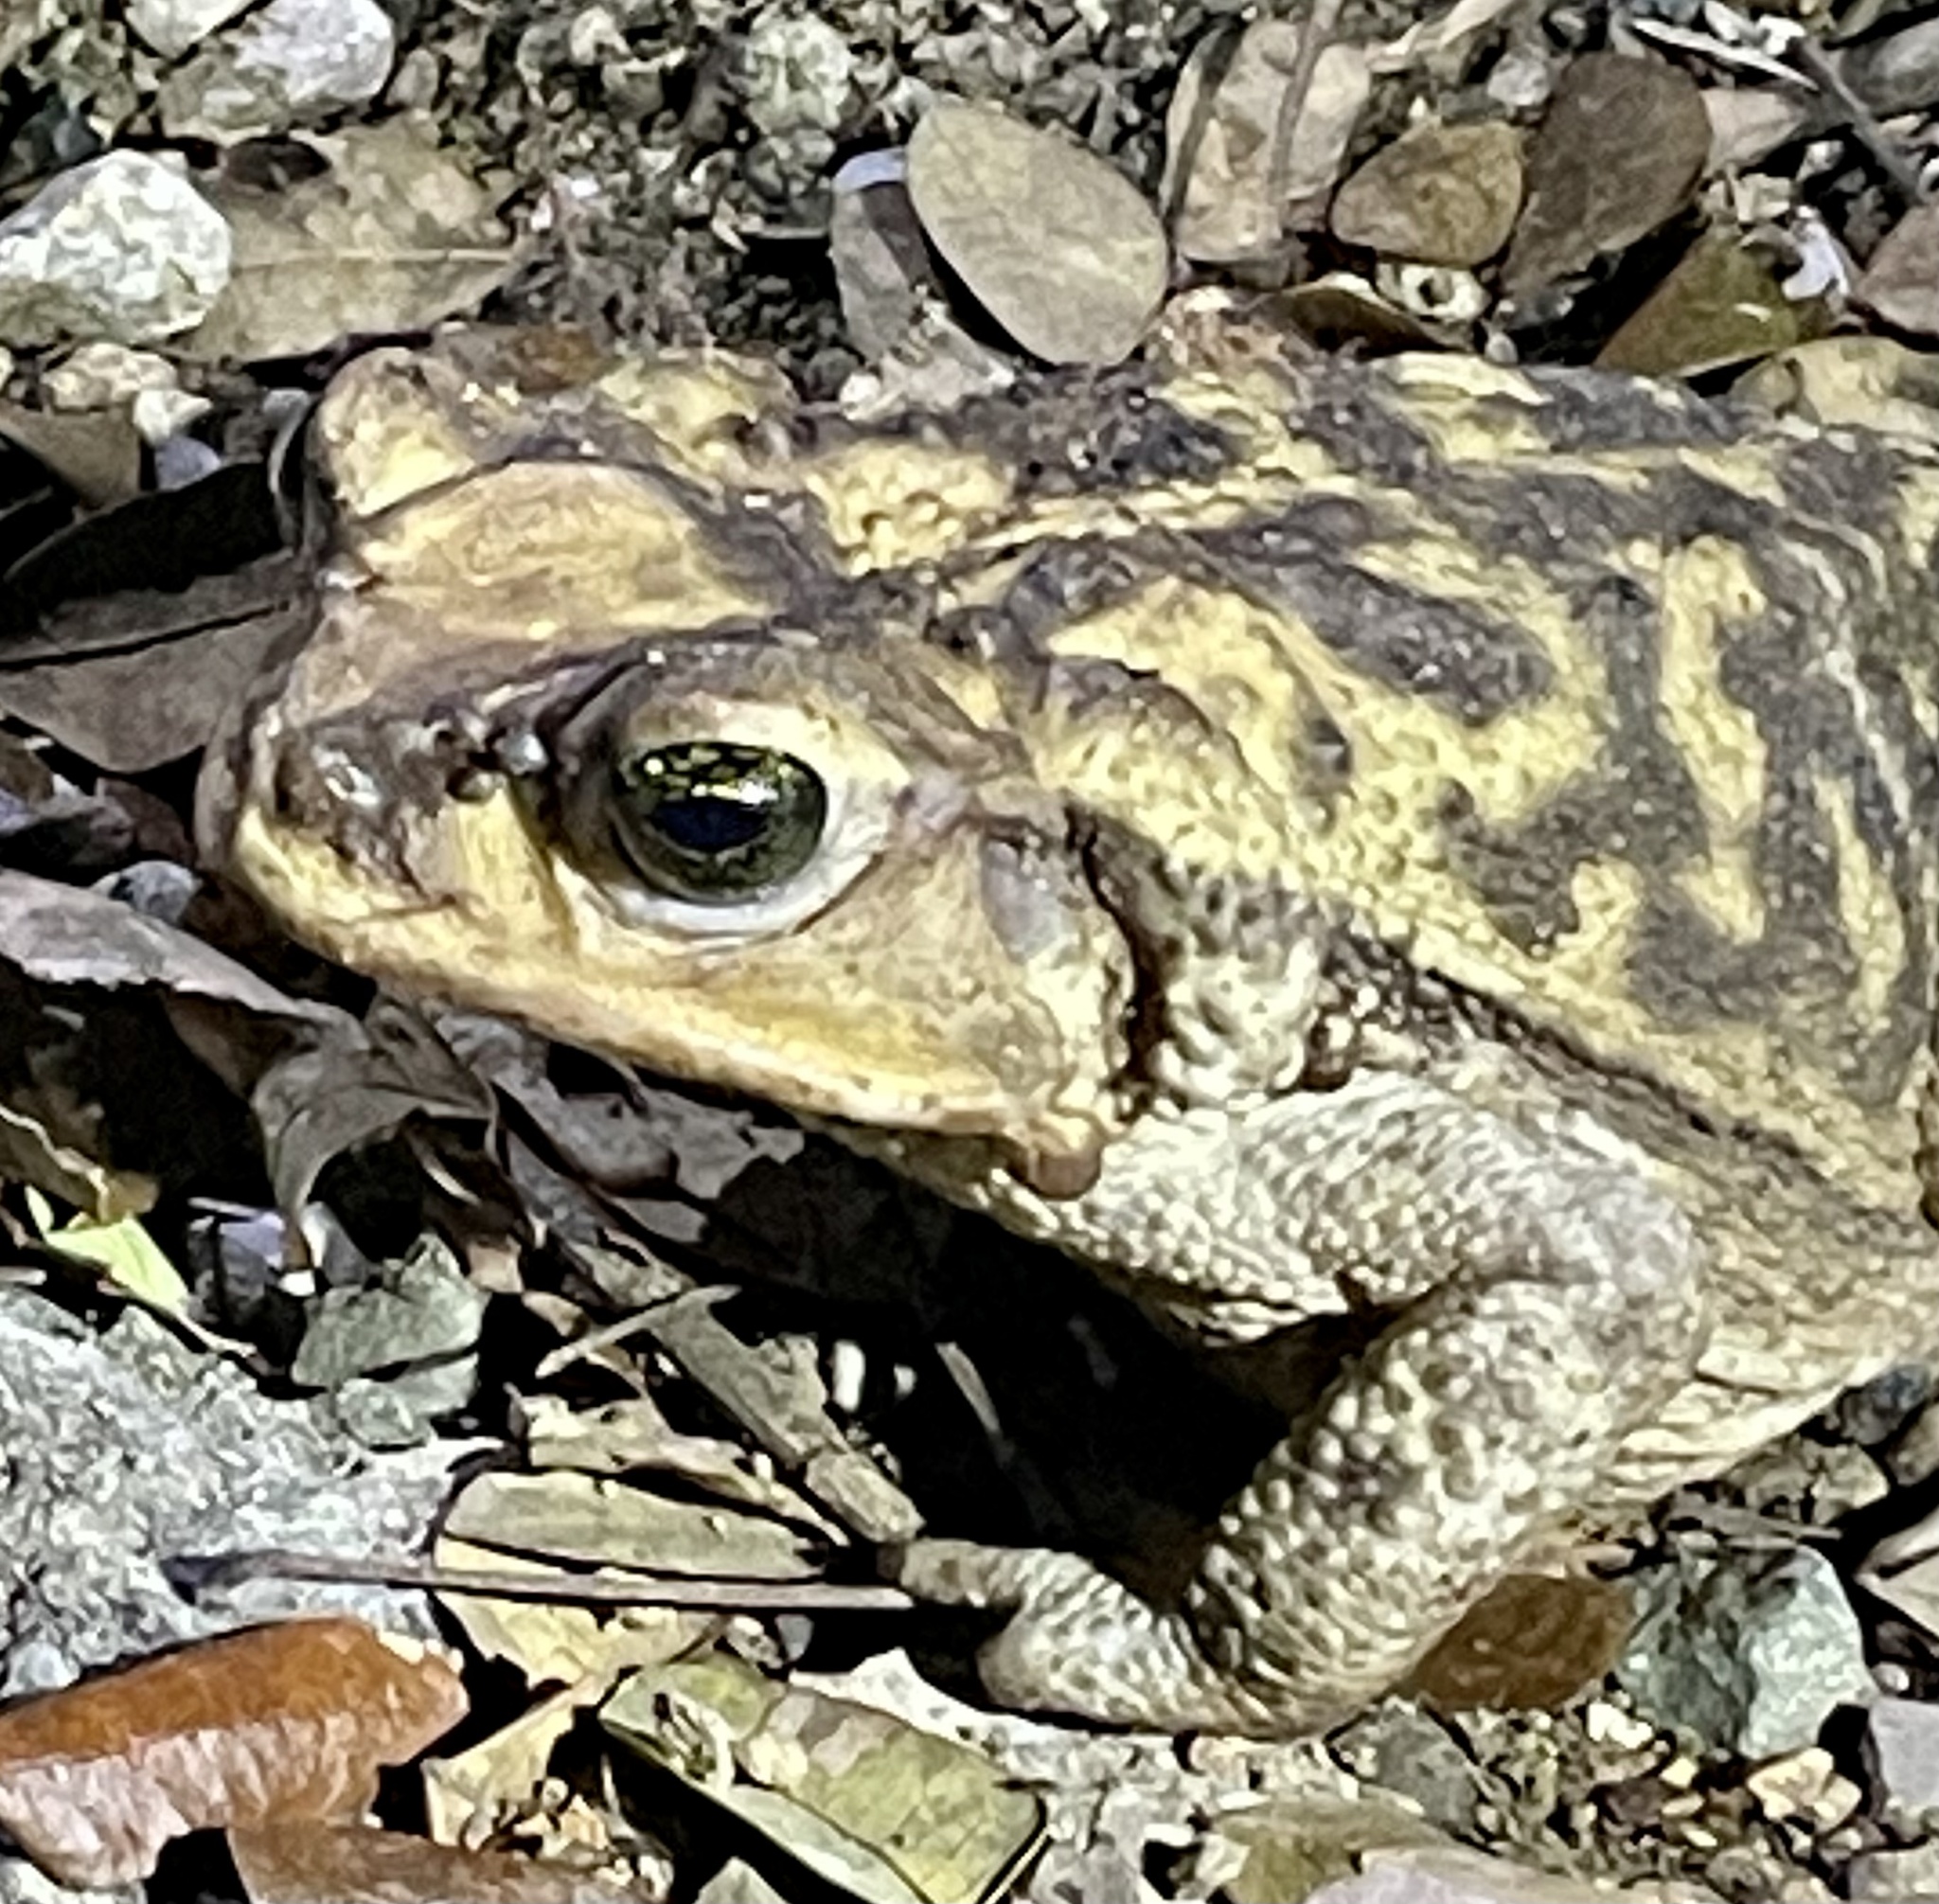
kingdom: Animalia
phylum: Chordata
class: Amphibia
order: Anura
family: Bufonidae
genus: Peltophryne
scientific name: Peltophryne fustiger
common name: Western cuba giant toad
